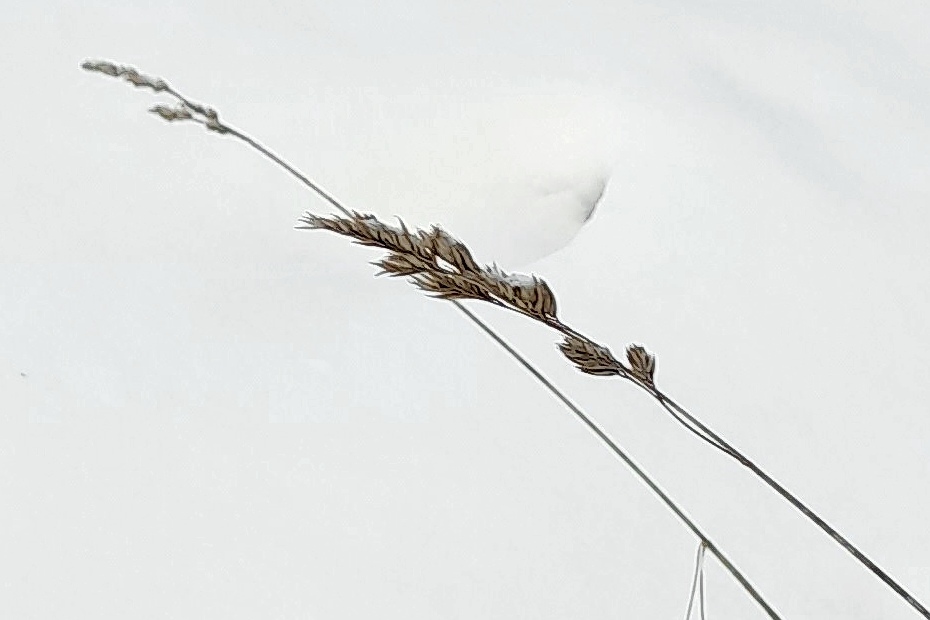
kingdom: Plantae
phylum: Tracheophyta
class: Liliopsida
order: Poales
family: Poaceae
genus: Dactylis
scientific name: Dactylis glomerata
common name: Orchardgrass
